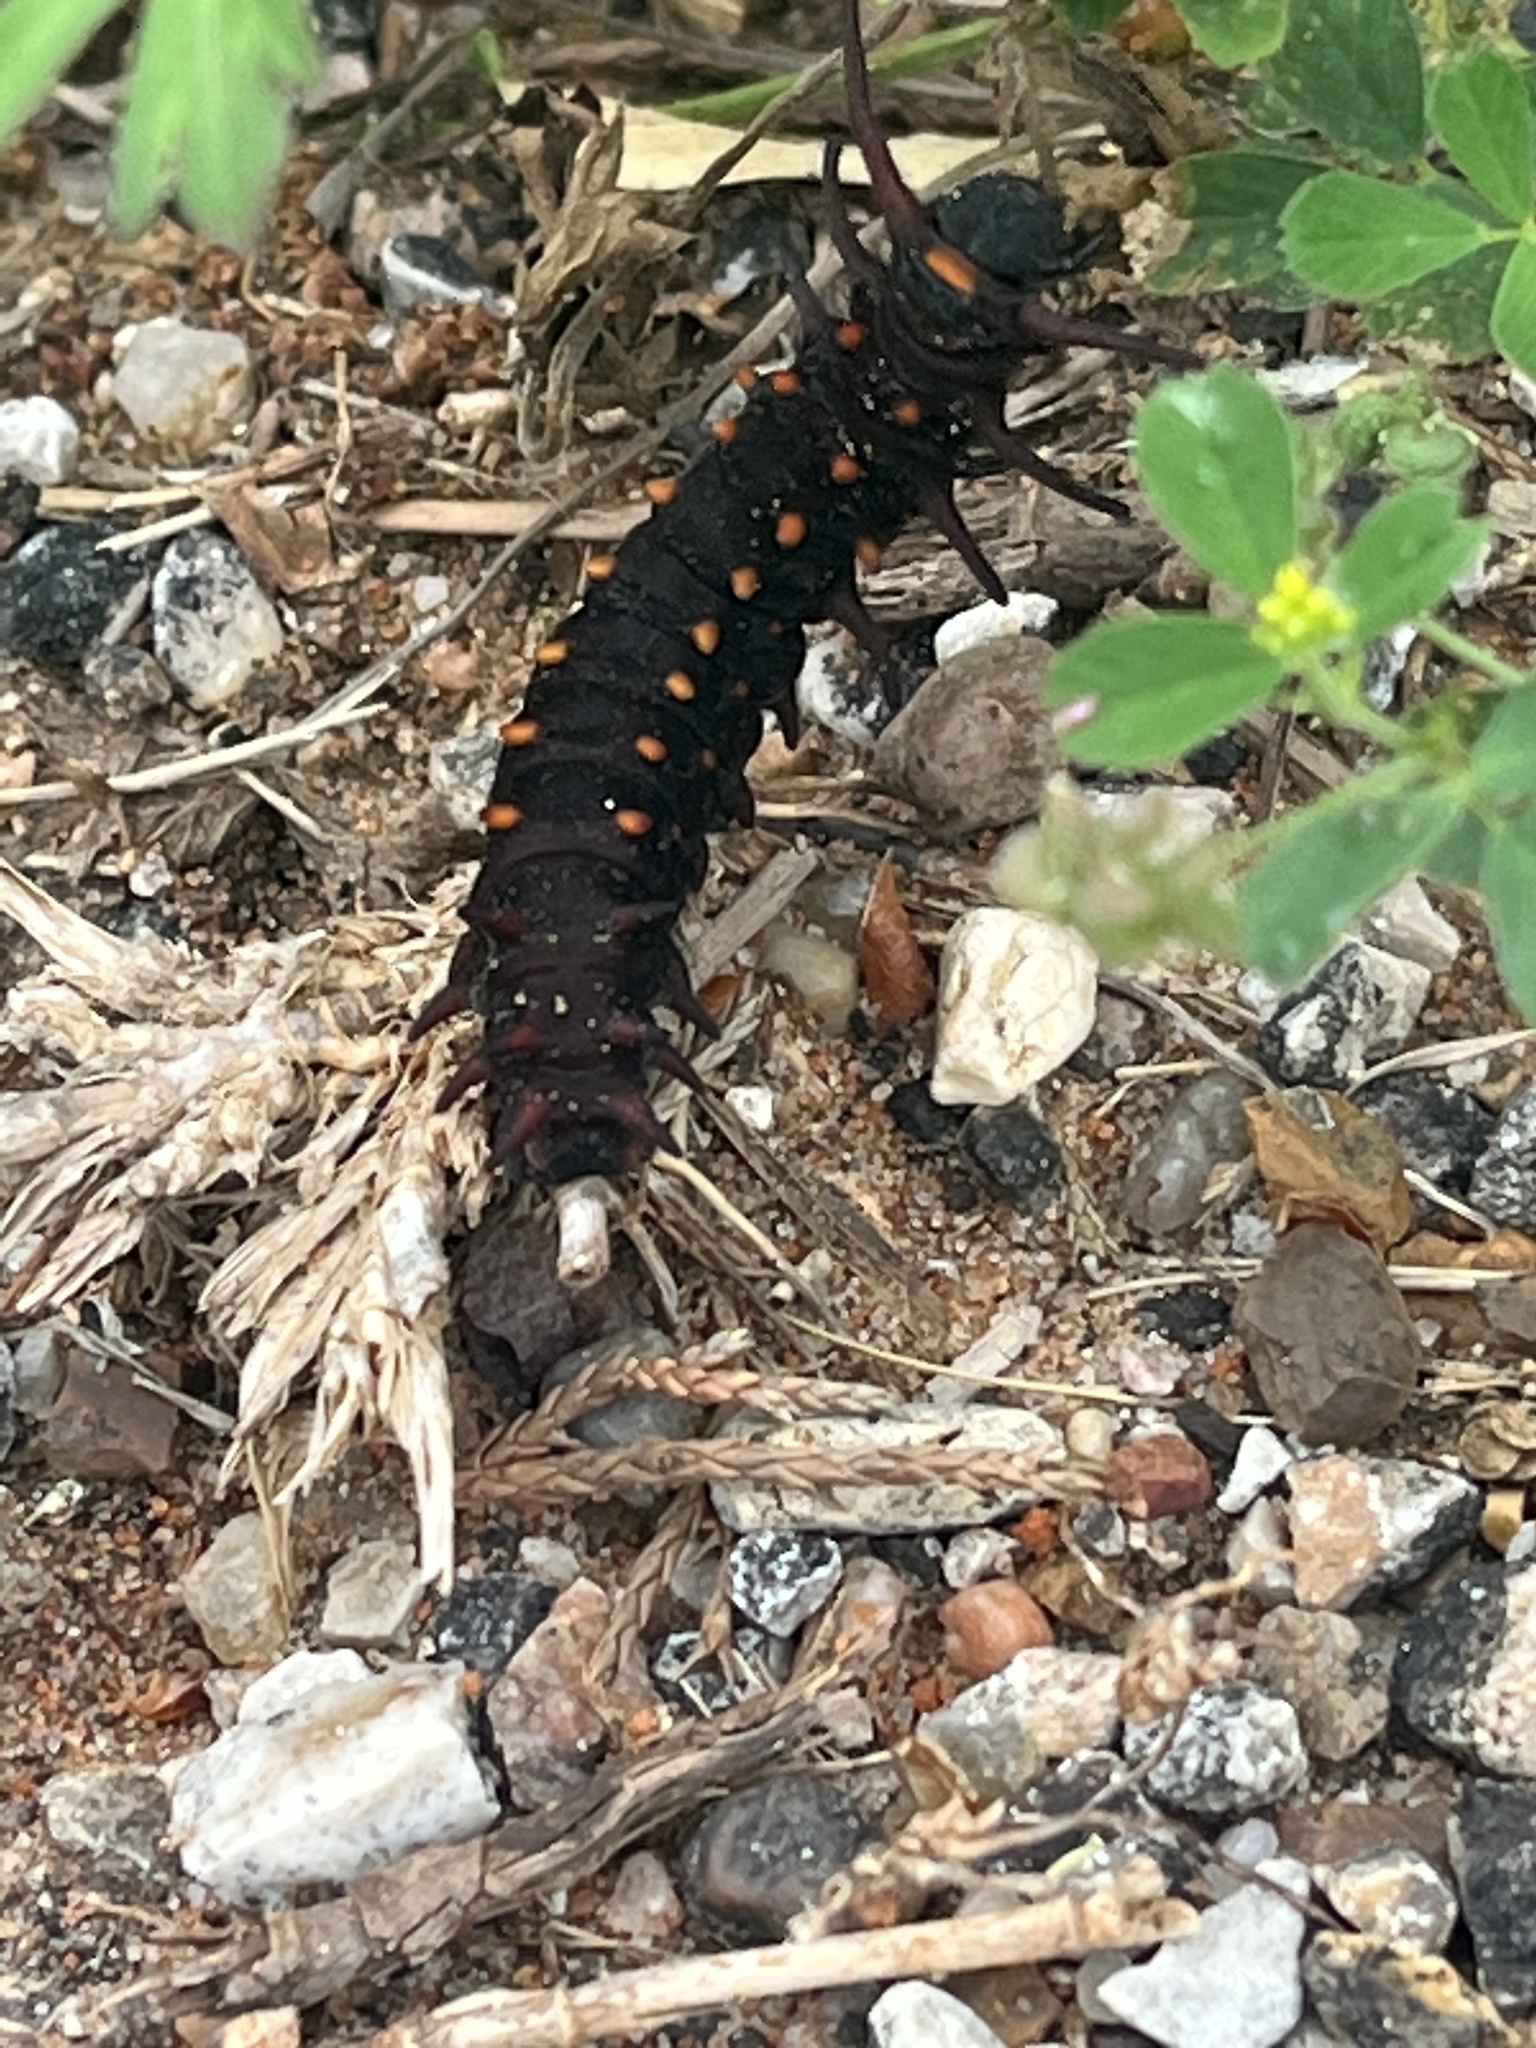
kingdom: Animalia
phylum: Arthropoda
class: Insecta
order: Lepidoptera
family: Papilionidae
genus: Battus
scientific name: Battus philenor
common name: Pipevine swallowtail
